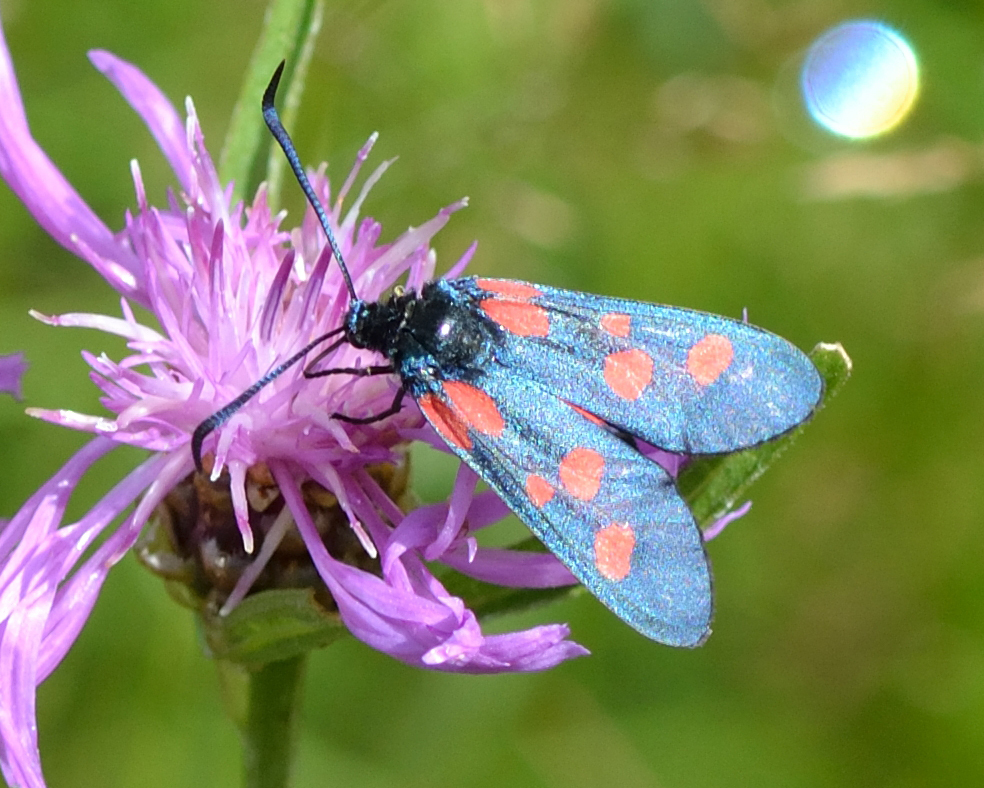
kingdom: Animalia
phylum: Arthropoda
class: Insecta
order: Lepidoptera
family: Zygaenidae
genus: Zygaena
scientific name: Zygaena viciae
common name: New forest burnet
